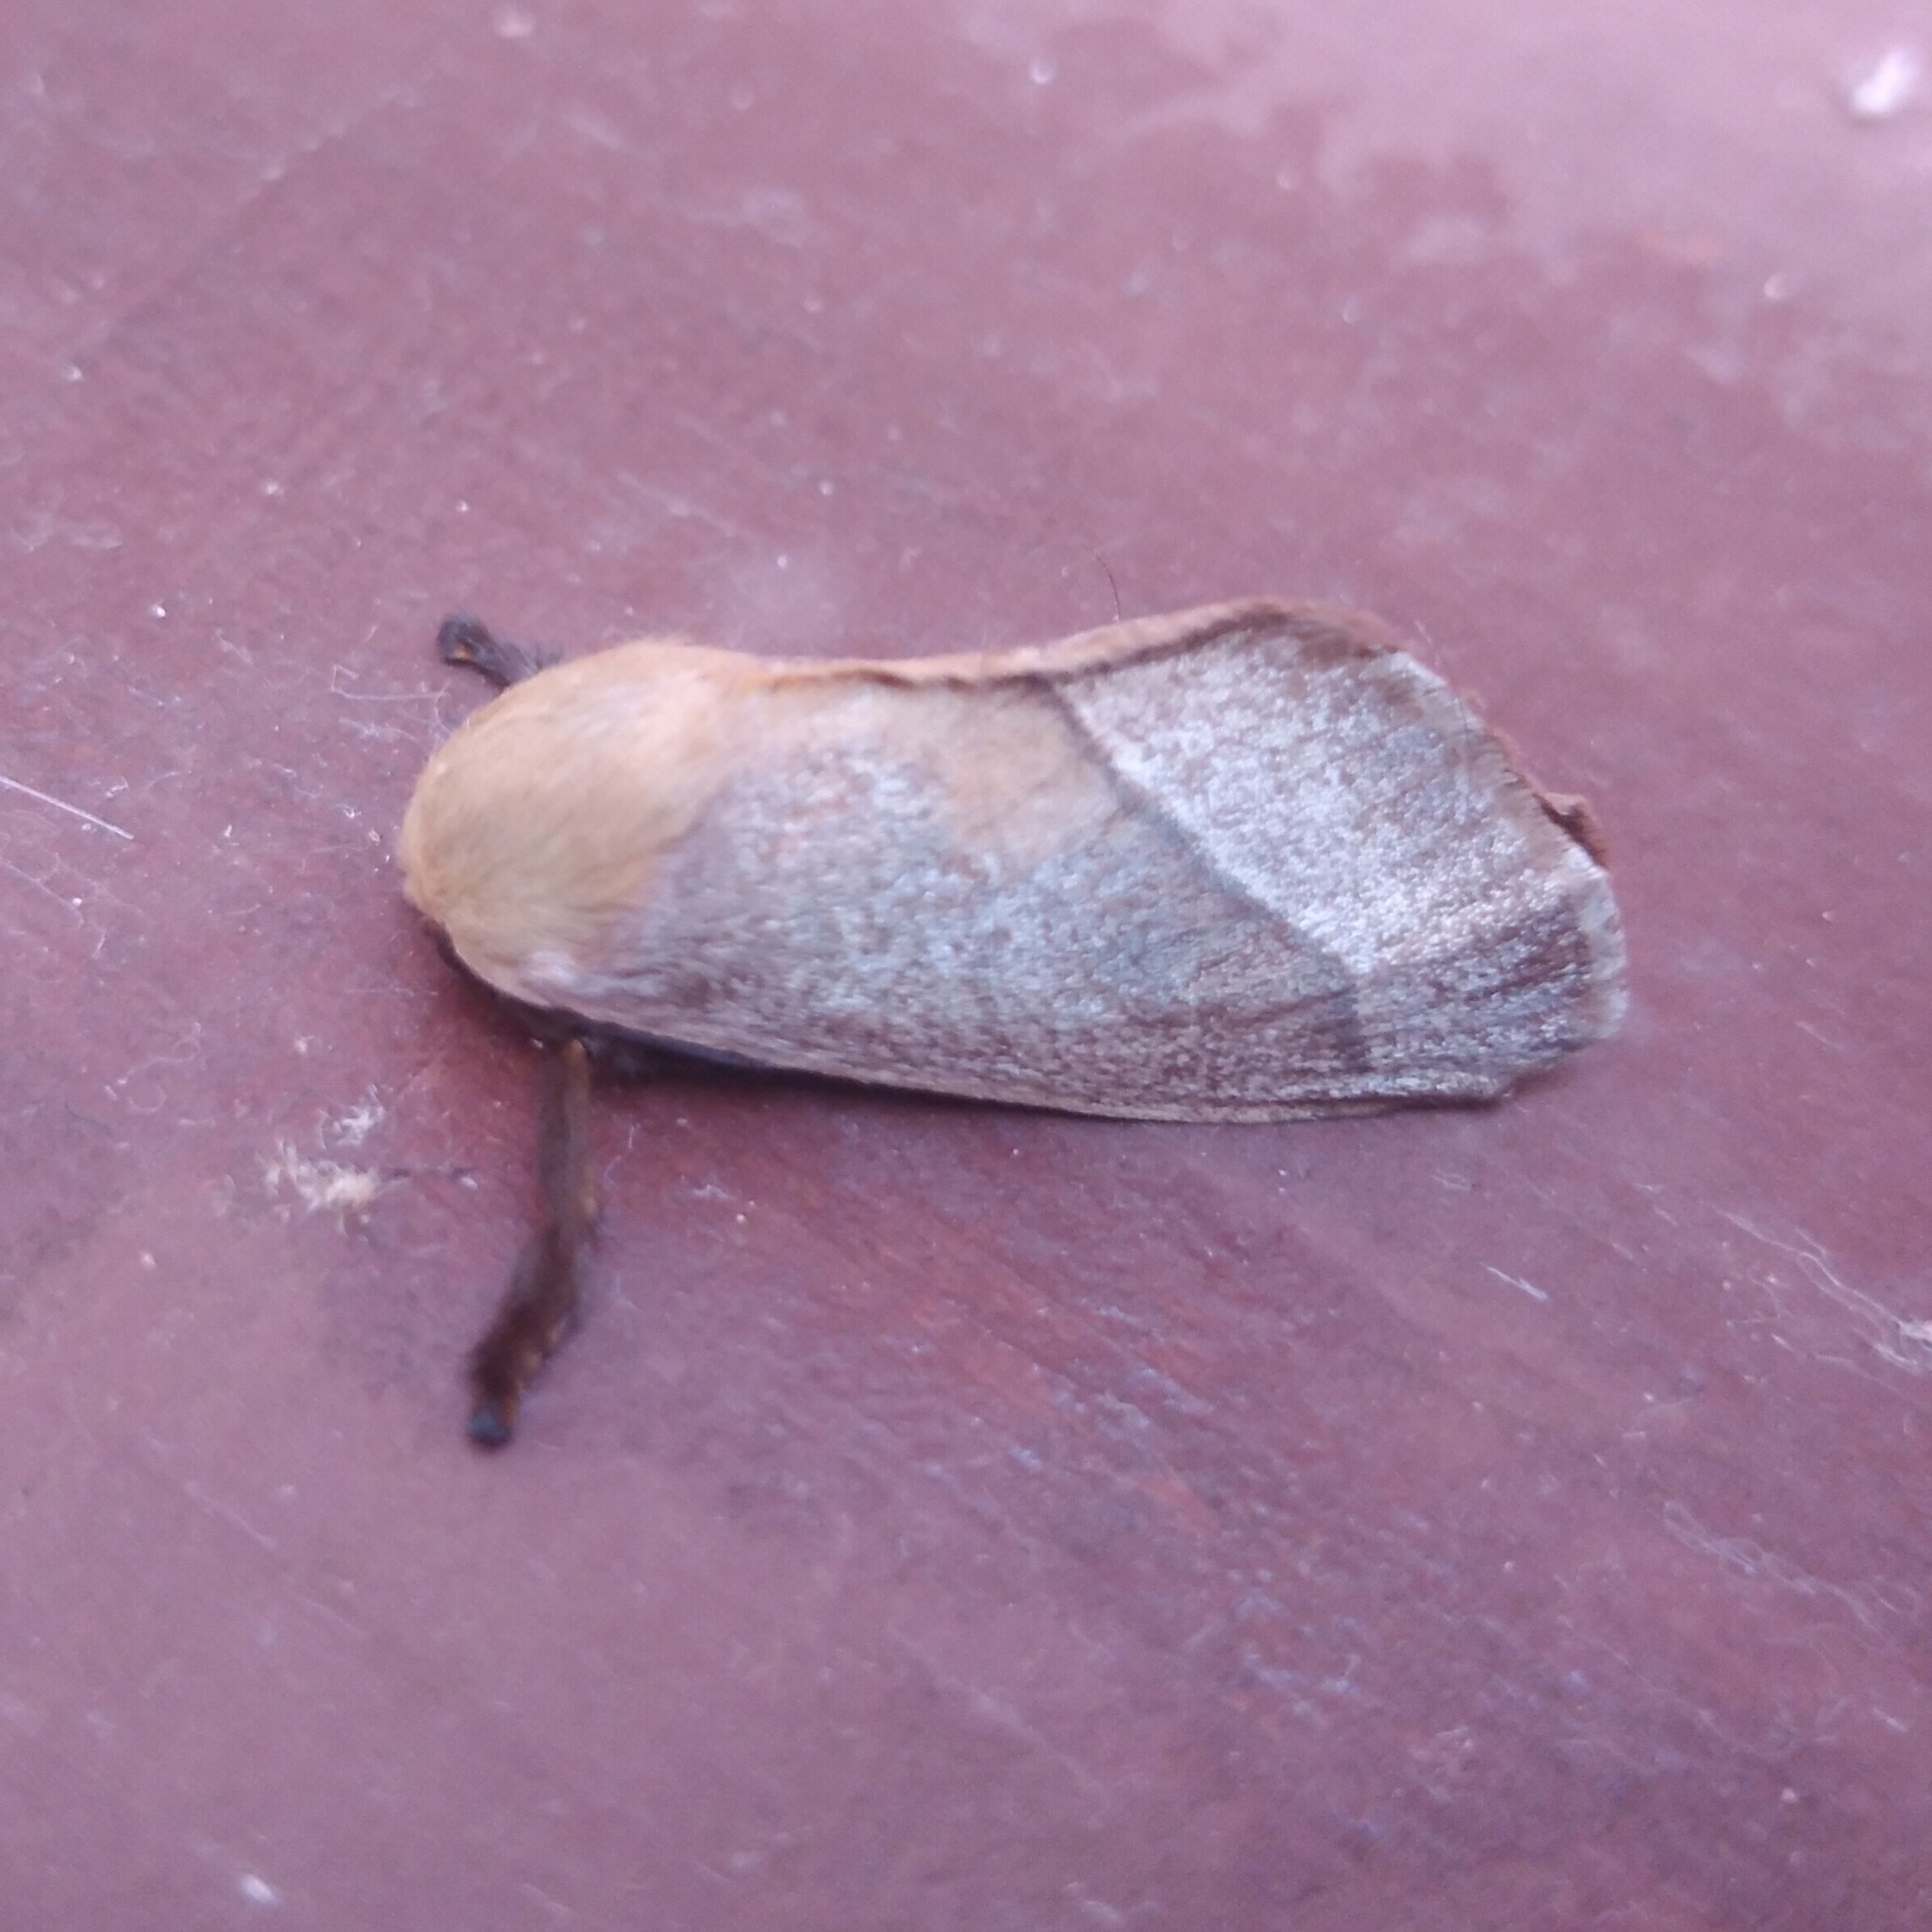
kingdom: Animalia
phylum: Arthropoda
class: Insecta
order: Lepidoptera
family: Limacodidae
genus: Latoia
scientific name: Latoia intermissa
